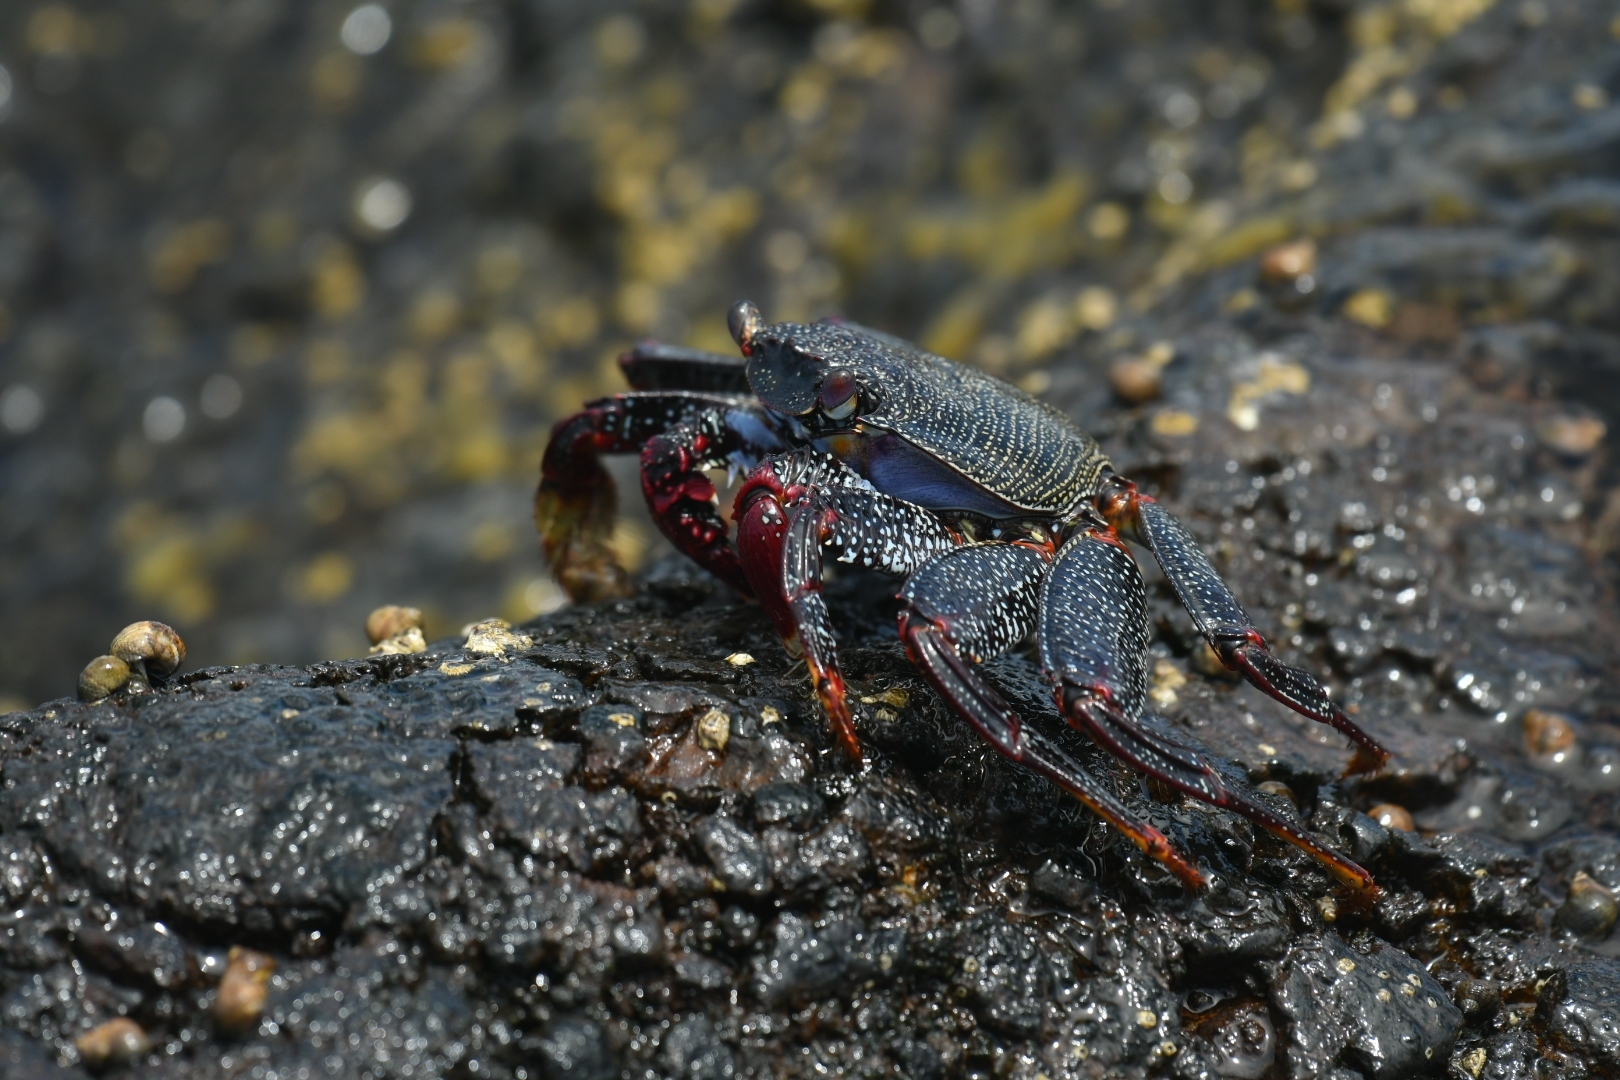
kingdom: Animalia
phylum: Arthropoda
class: Malacostraca
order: Decapoda
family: Grapsidae
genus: Grapsus
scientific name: Grapsus adscensionis
